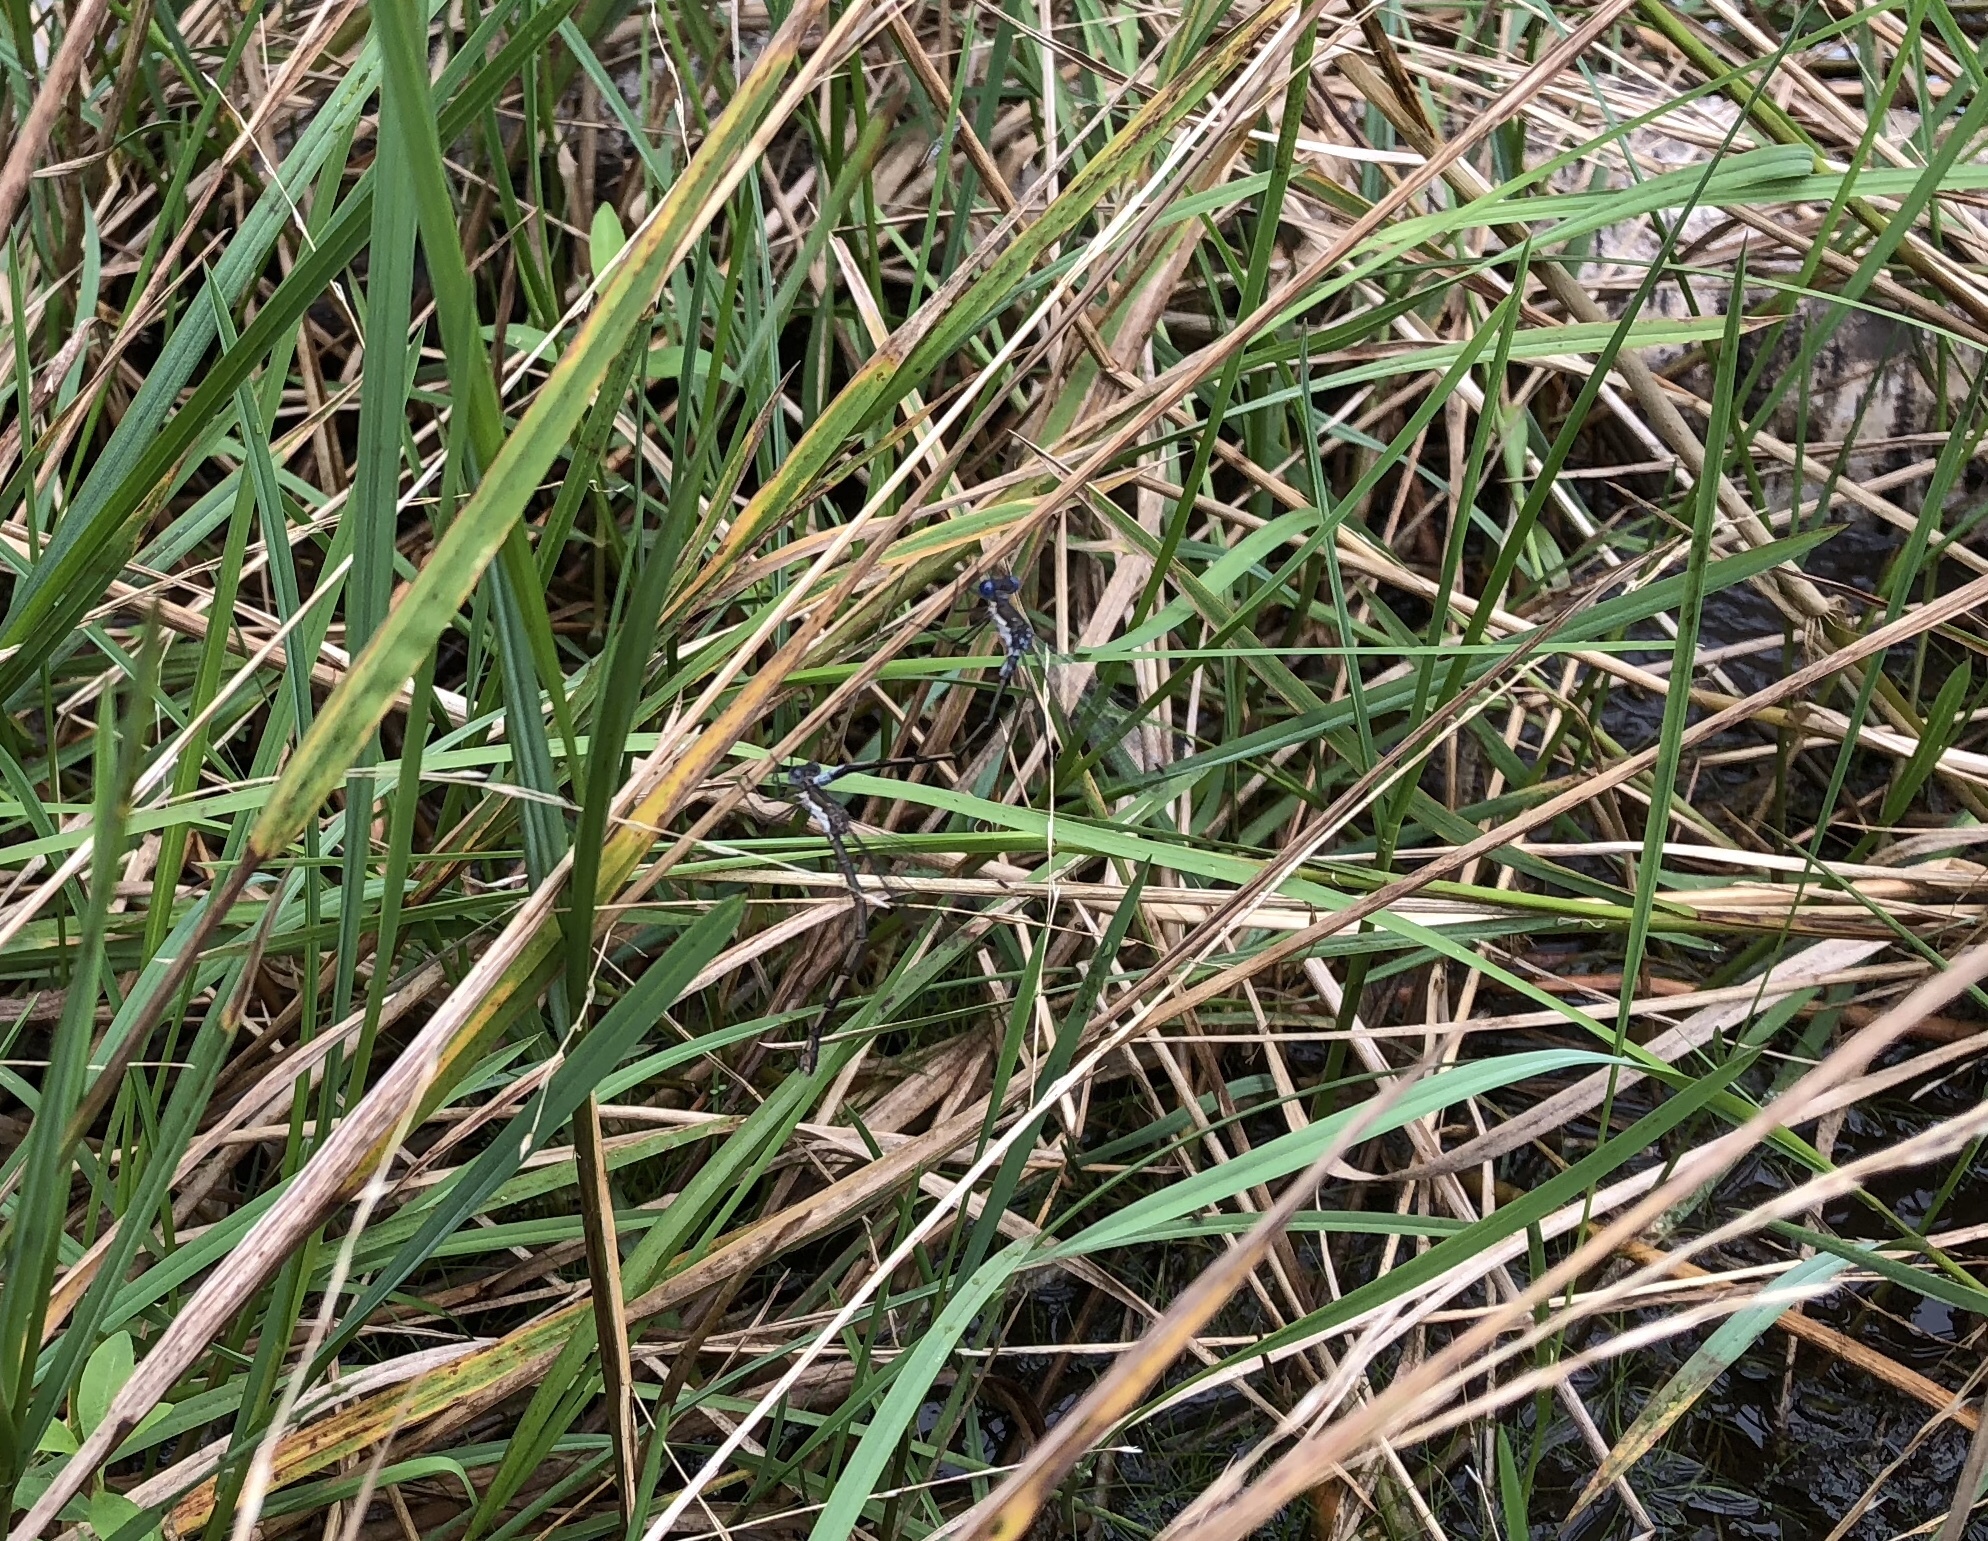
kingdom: Animalia
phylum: Arthropoda
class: Insecta
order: Odonata
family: Lestidae
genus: Lestes
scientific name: Lestes congener
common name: Spotted spreadwing
